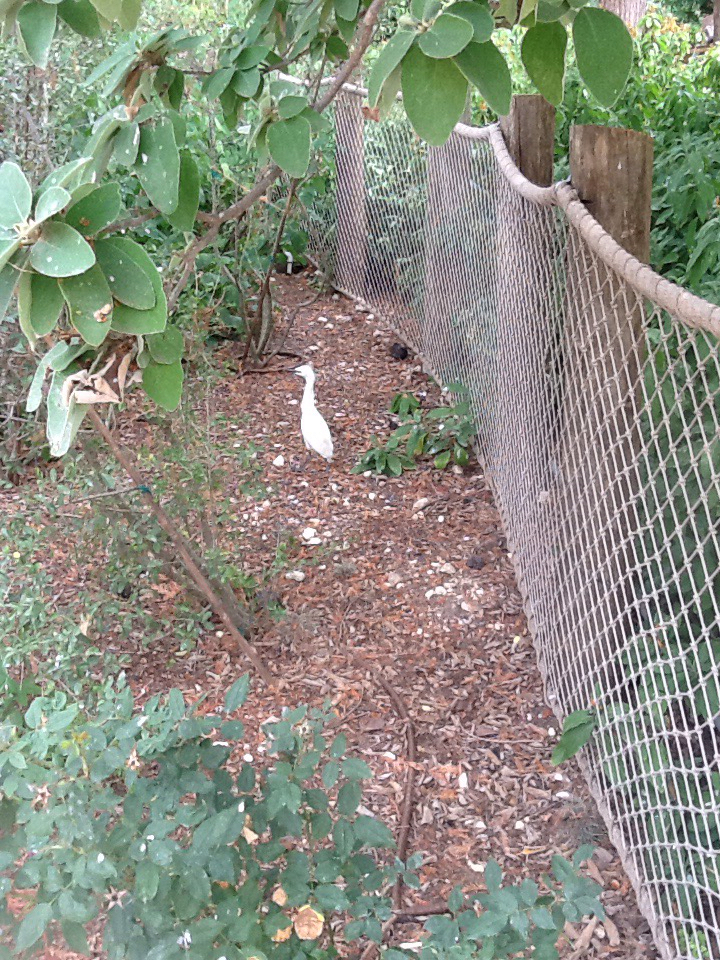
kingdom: Animalia
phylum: Chordata
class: Aves
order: Pelecaniformes
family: Ardeidae
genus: Bubulcus
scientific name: Bubulcus ibis
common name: Cattle egret
